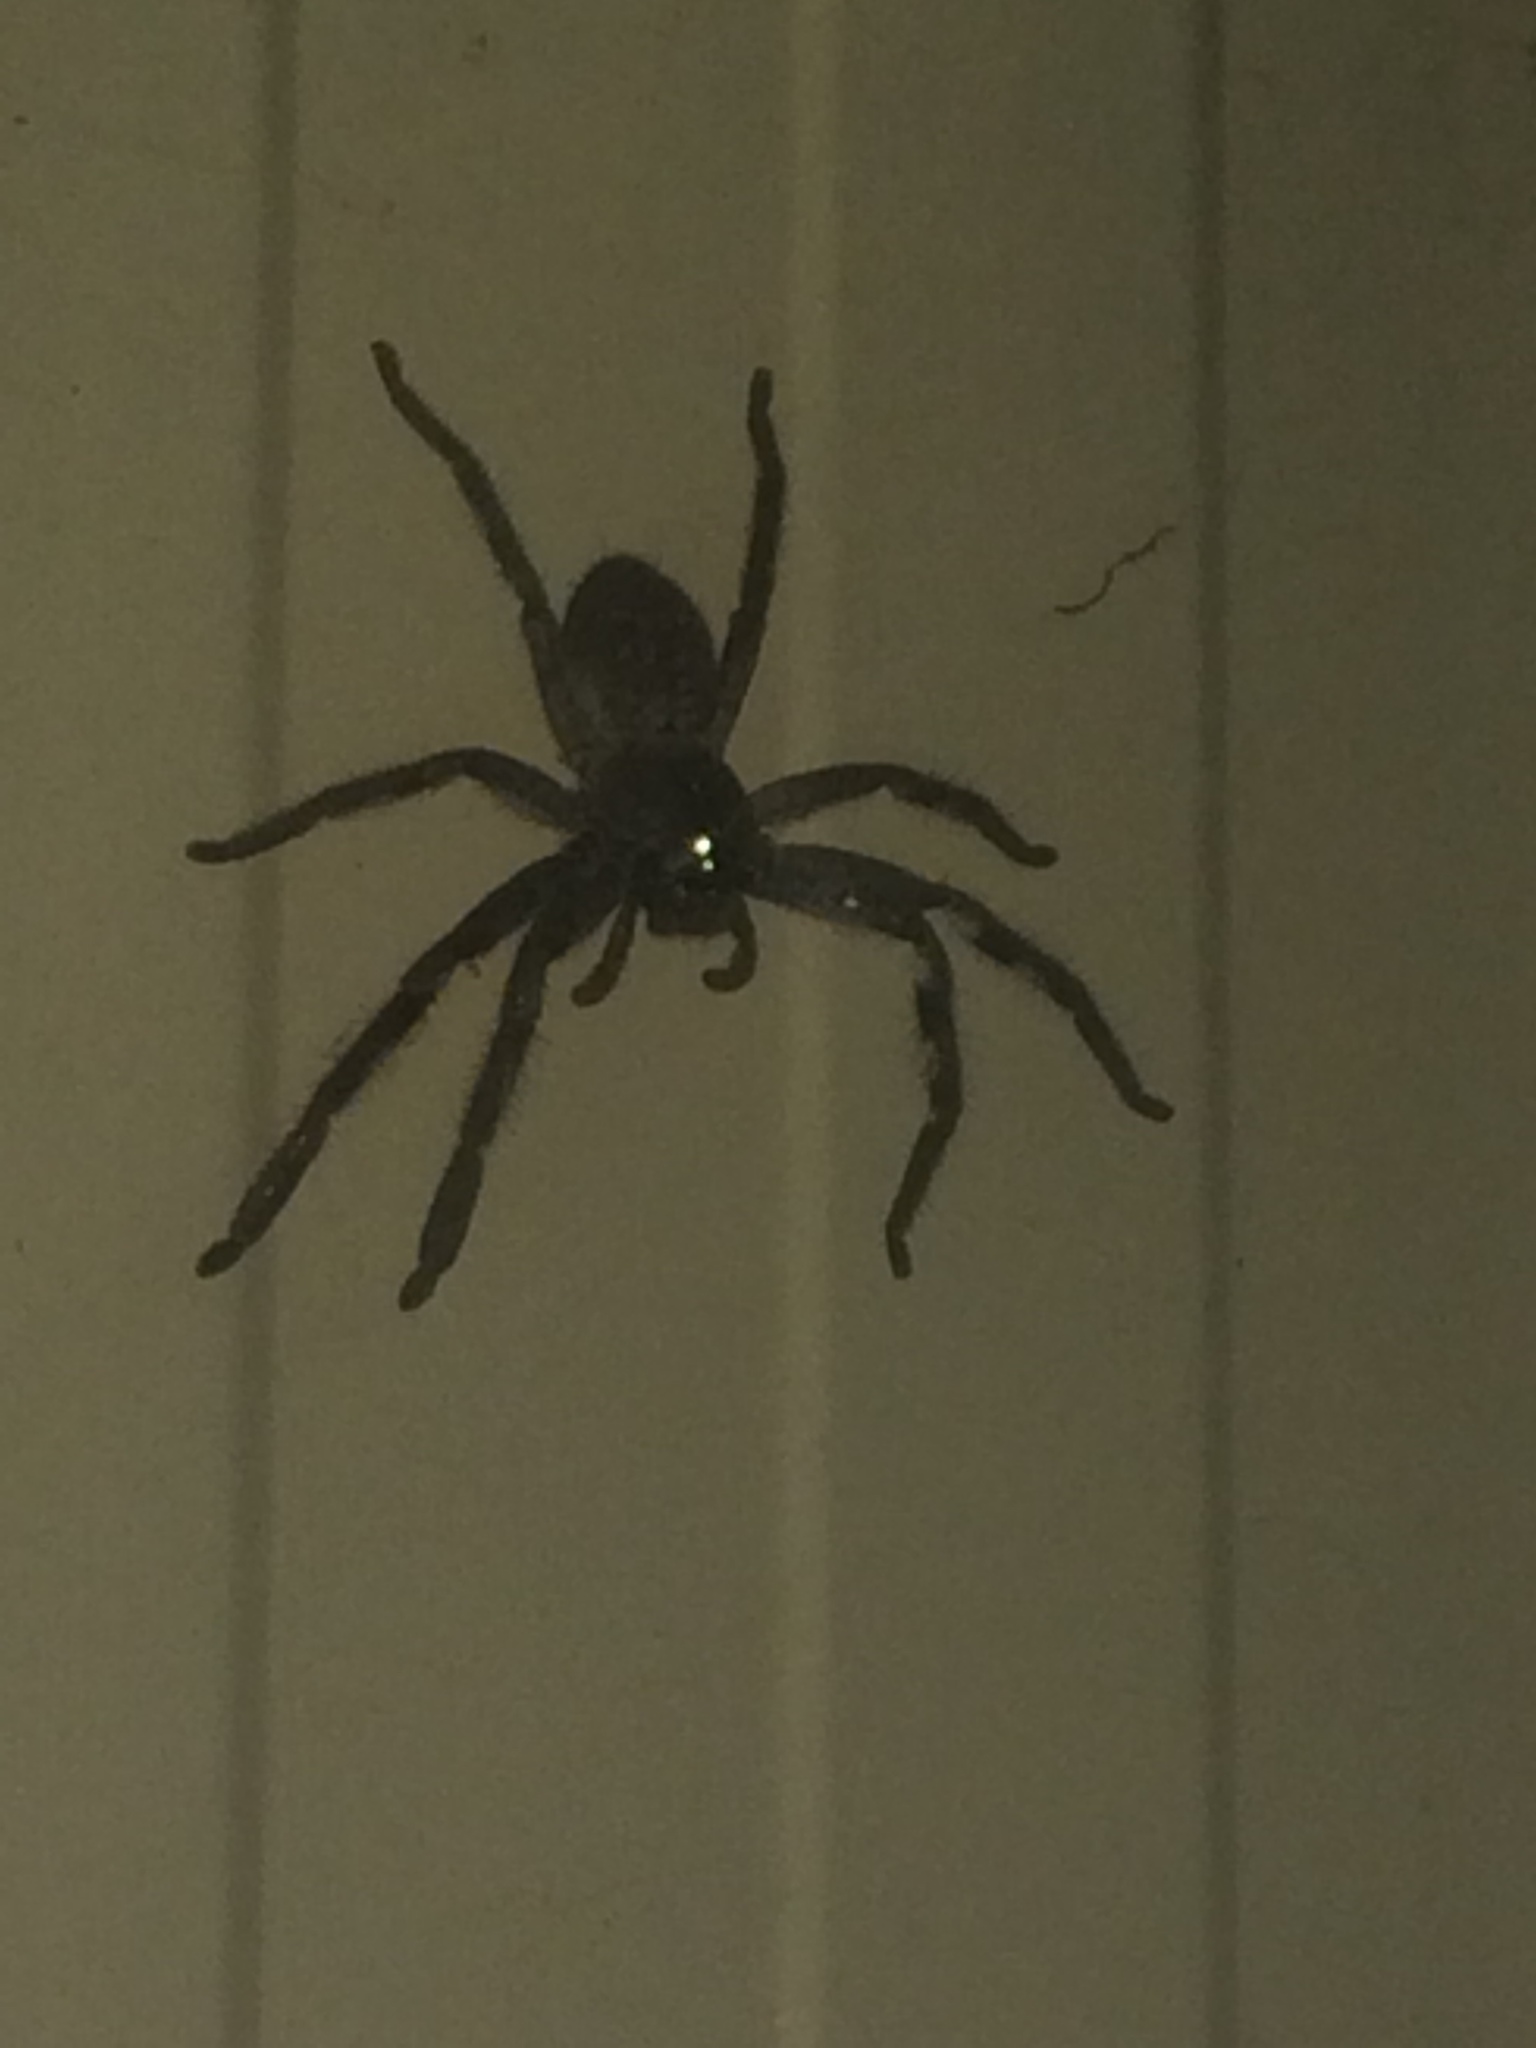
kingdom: Animalia
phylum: Arthropoda
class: Arachnida
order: Araneae
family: Sparassidae
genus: Isopedella
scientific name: Isopedella victorialis
